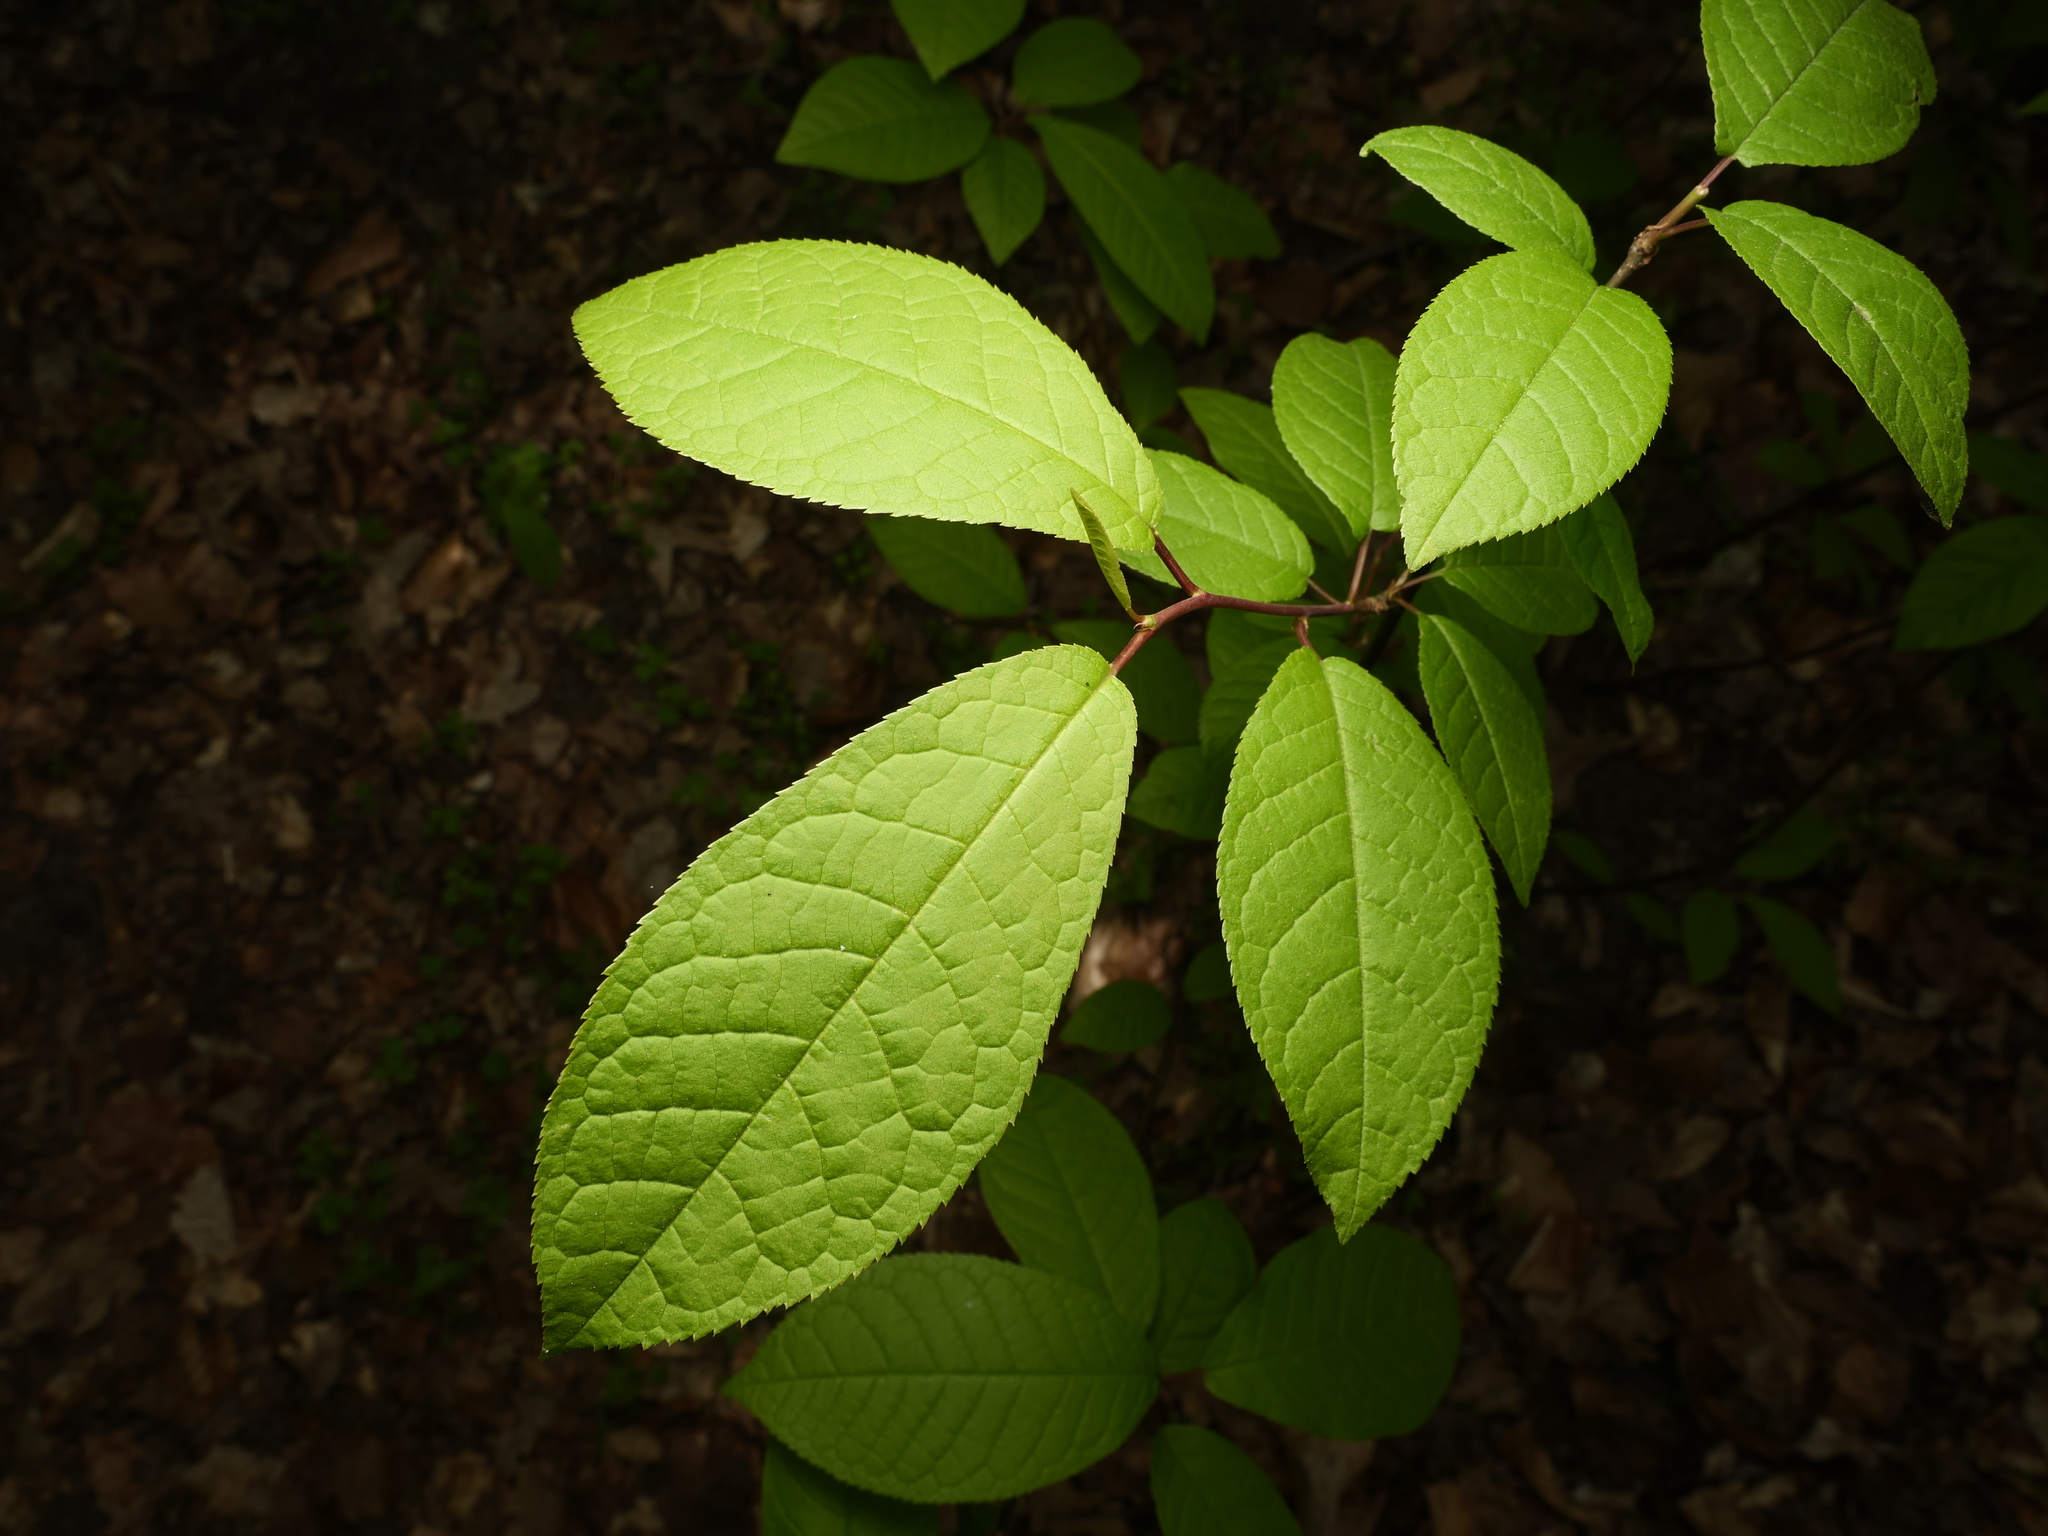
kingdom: Plantae
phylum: Tracheophyta
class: Magnoliopsida
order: Rosales
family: Rosaceae
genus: Prunus
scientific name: Prunus padus
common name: Bird cherry
